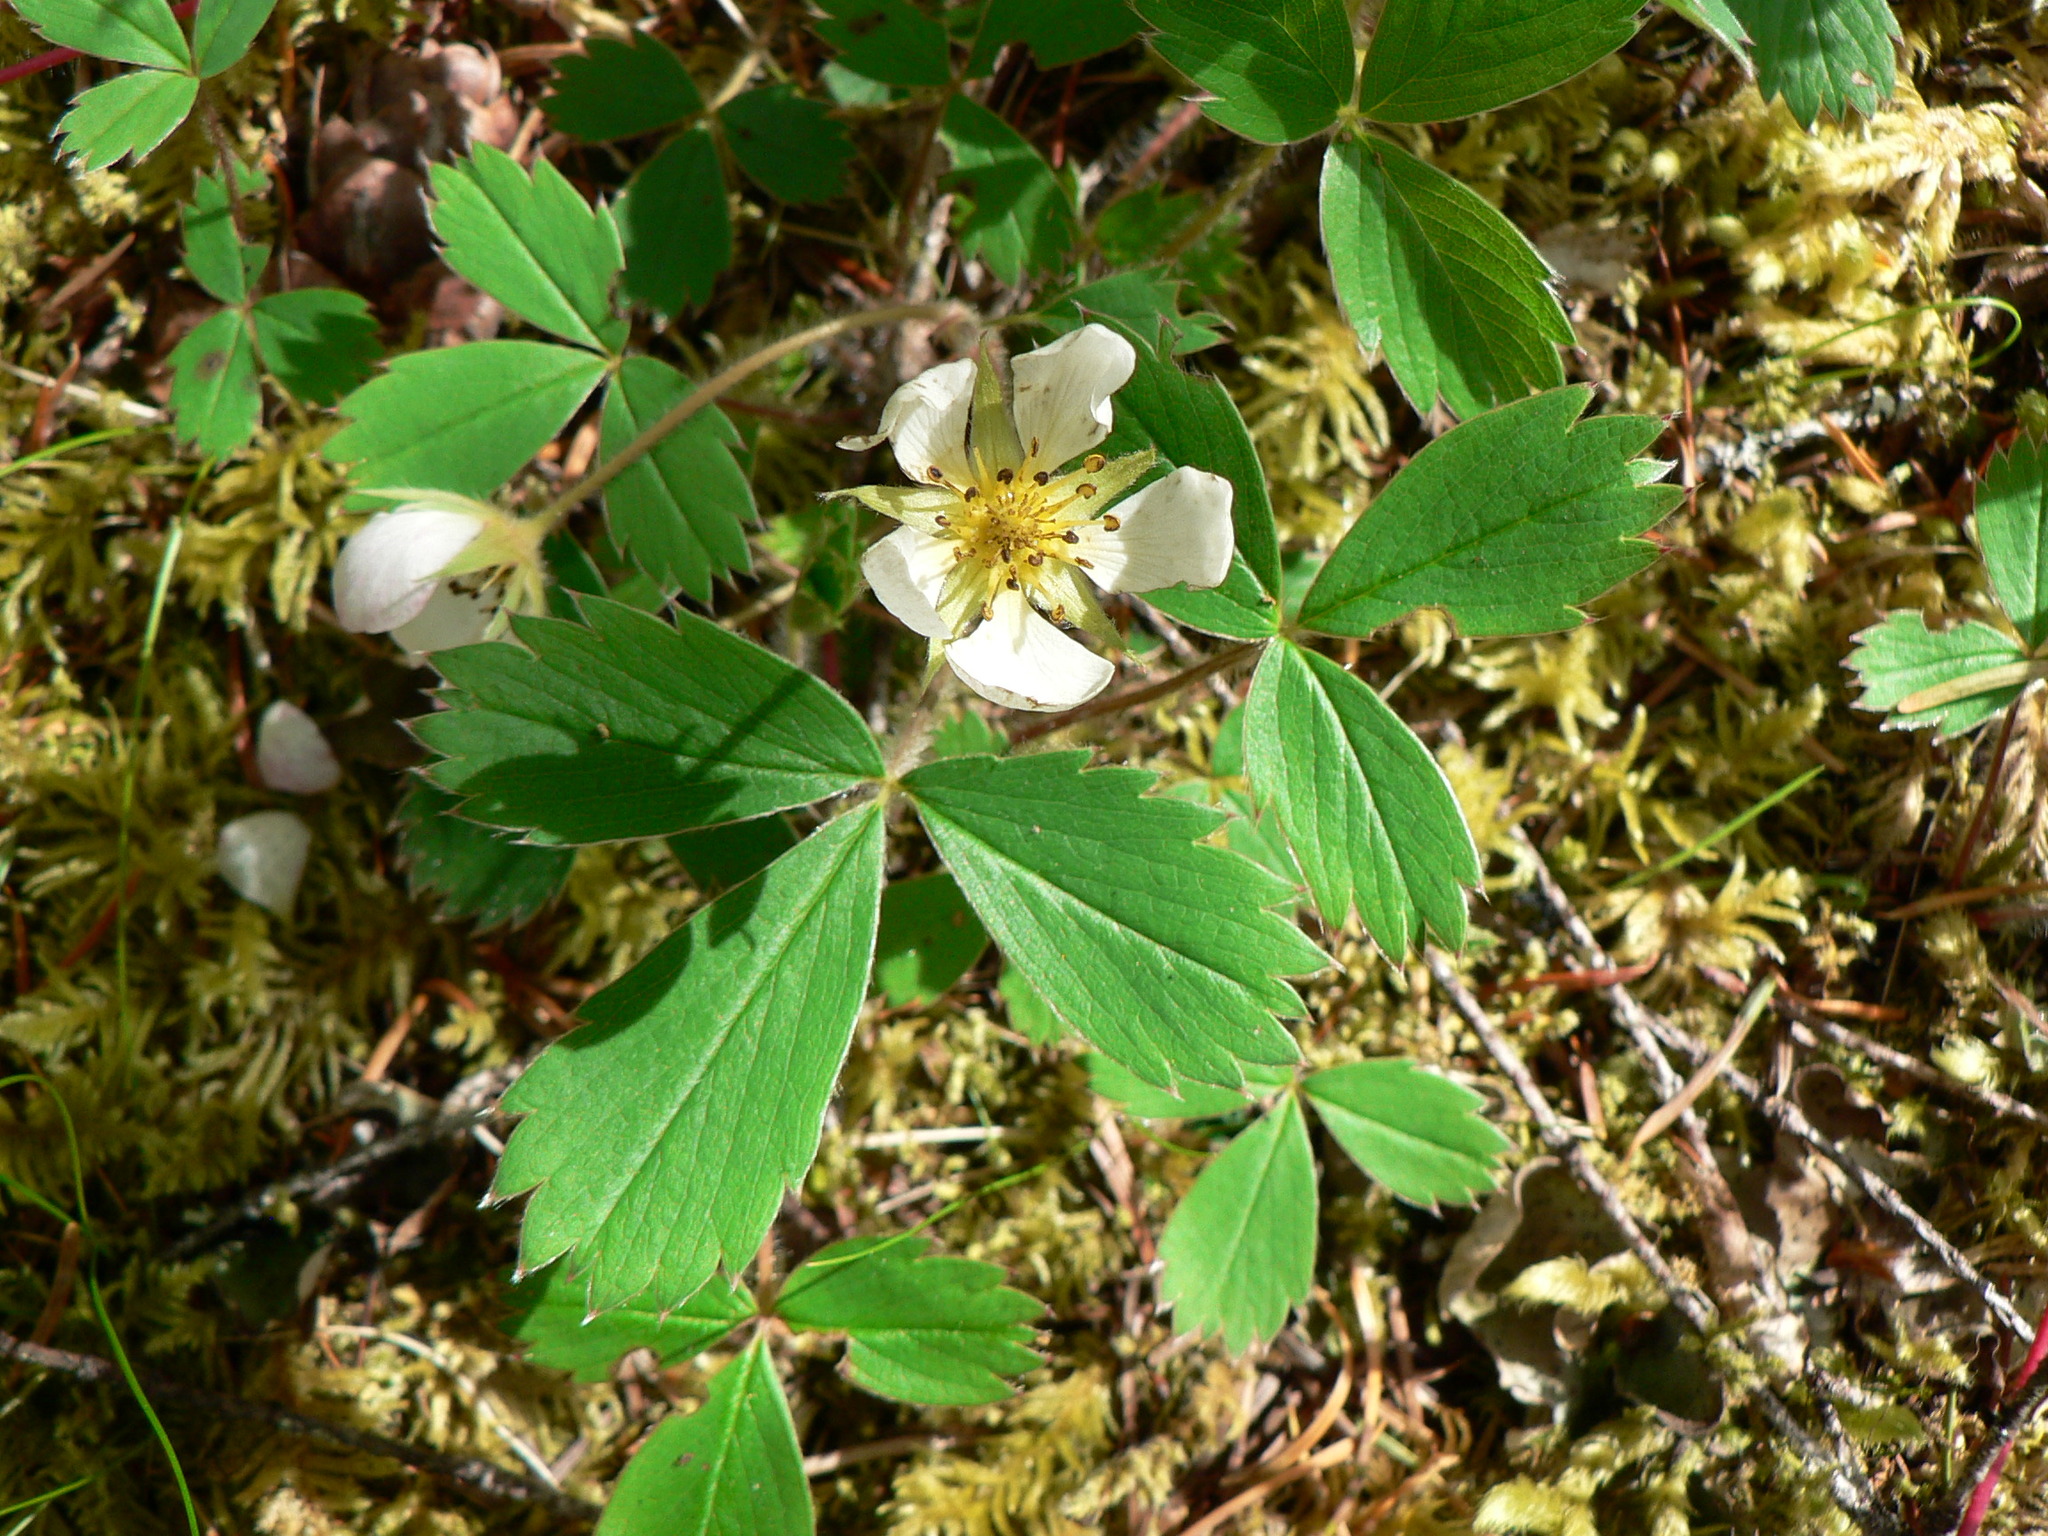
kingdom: Plantae
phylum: Tracheophyta
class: Magnoliopsida
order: Rosales
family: Rosaceae
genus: Fragaria
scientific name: Fragaria virginiana
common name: Thickleaved wild strawberry
